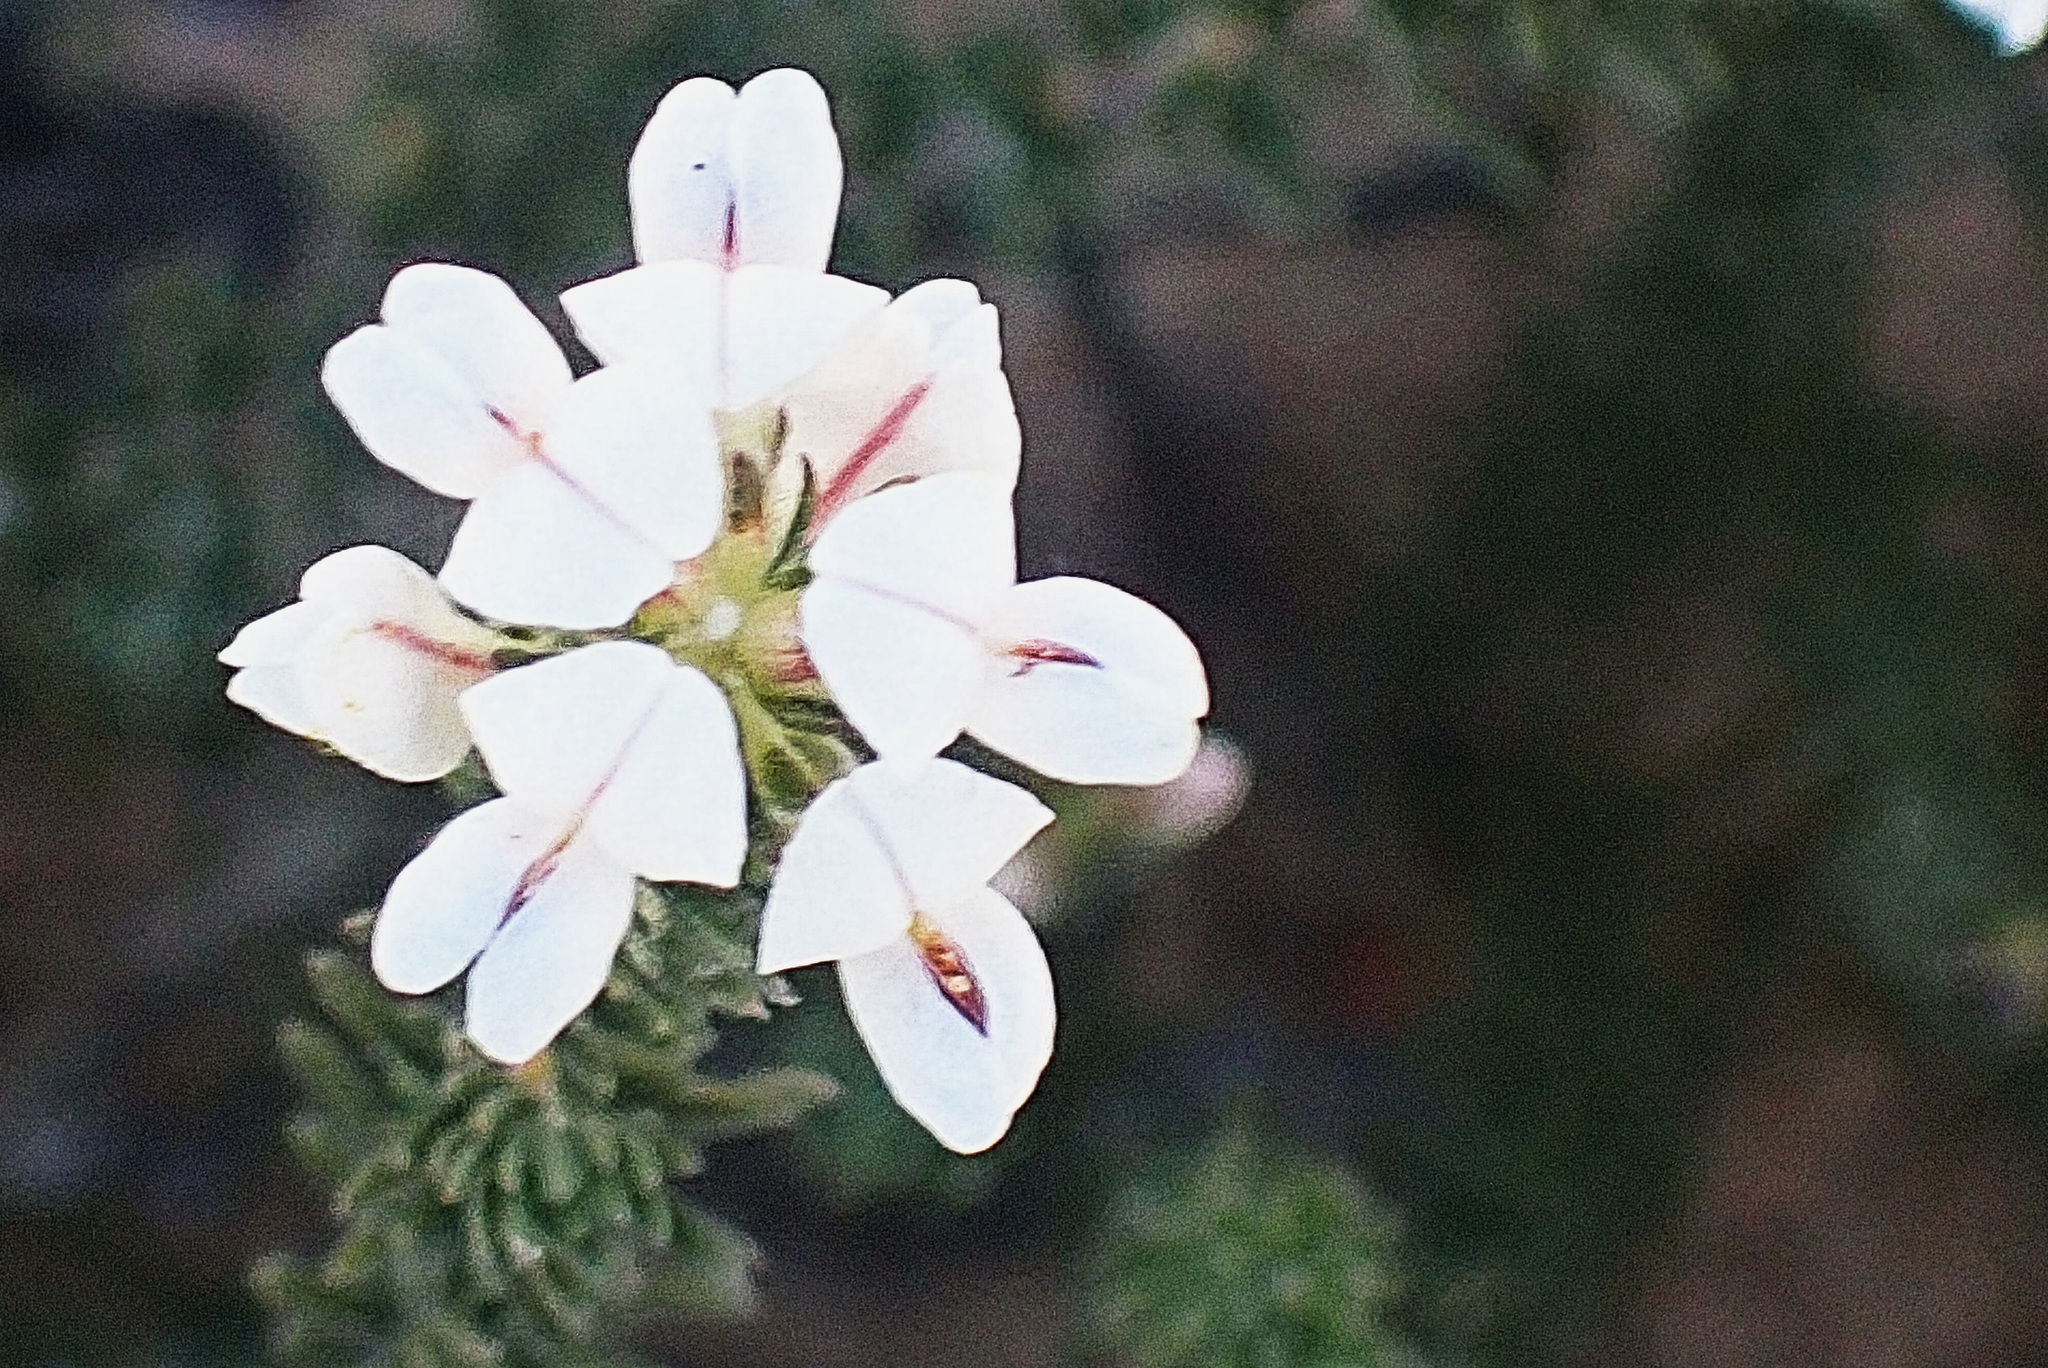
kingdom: Plantae
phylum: Tracheophyta
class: Magnoliopsida
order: Fabales
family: Fabaceae
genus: Aspalathus
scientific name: Aspalathus submissa
